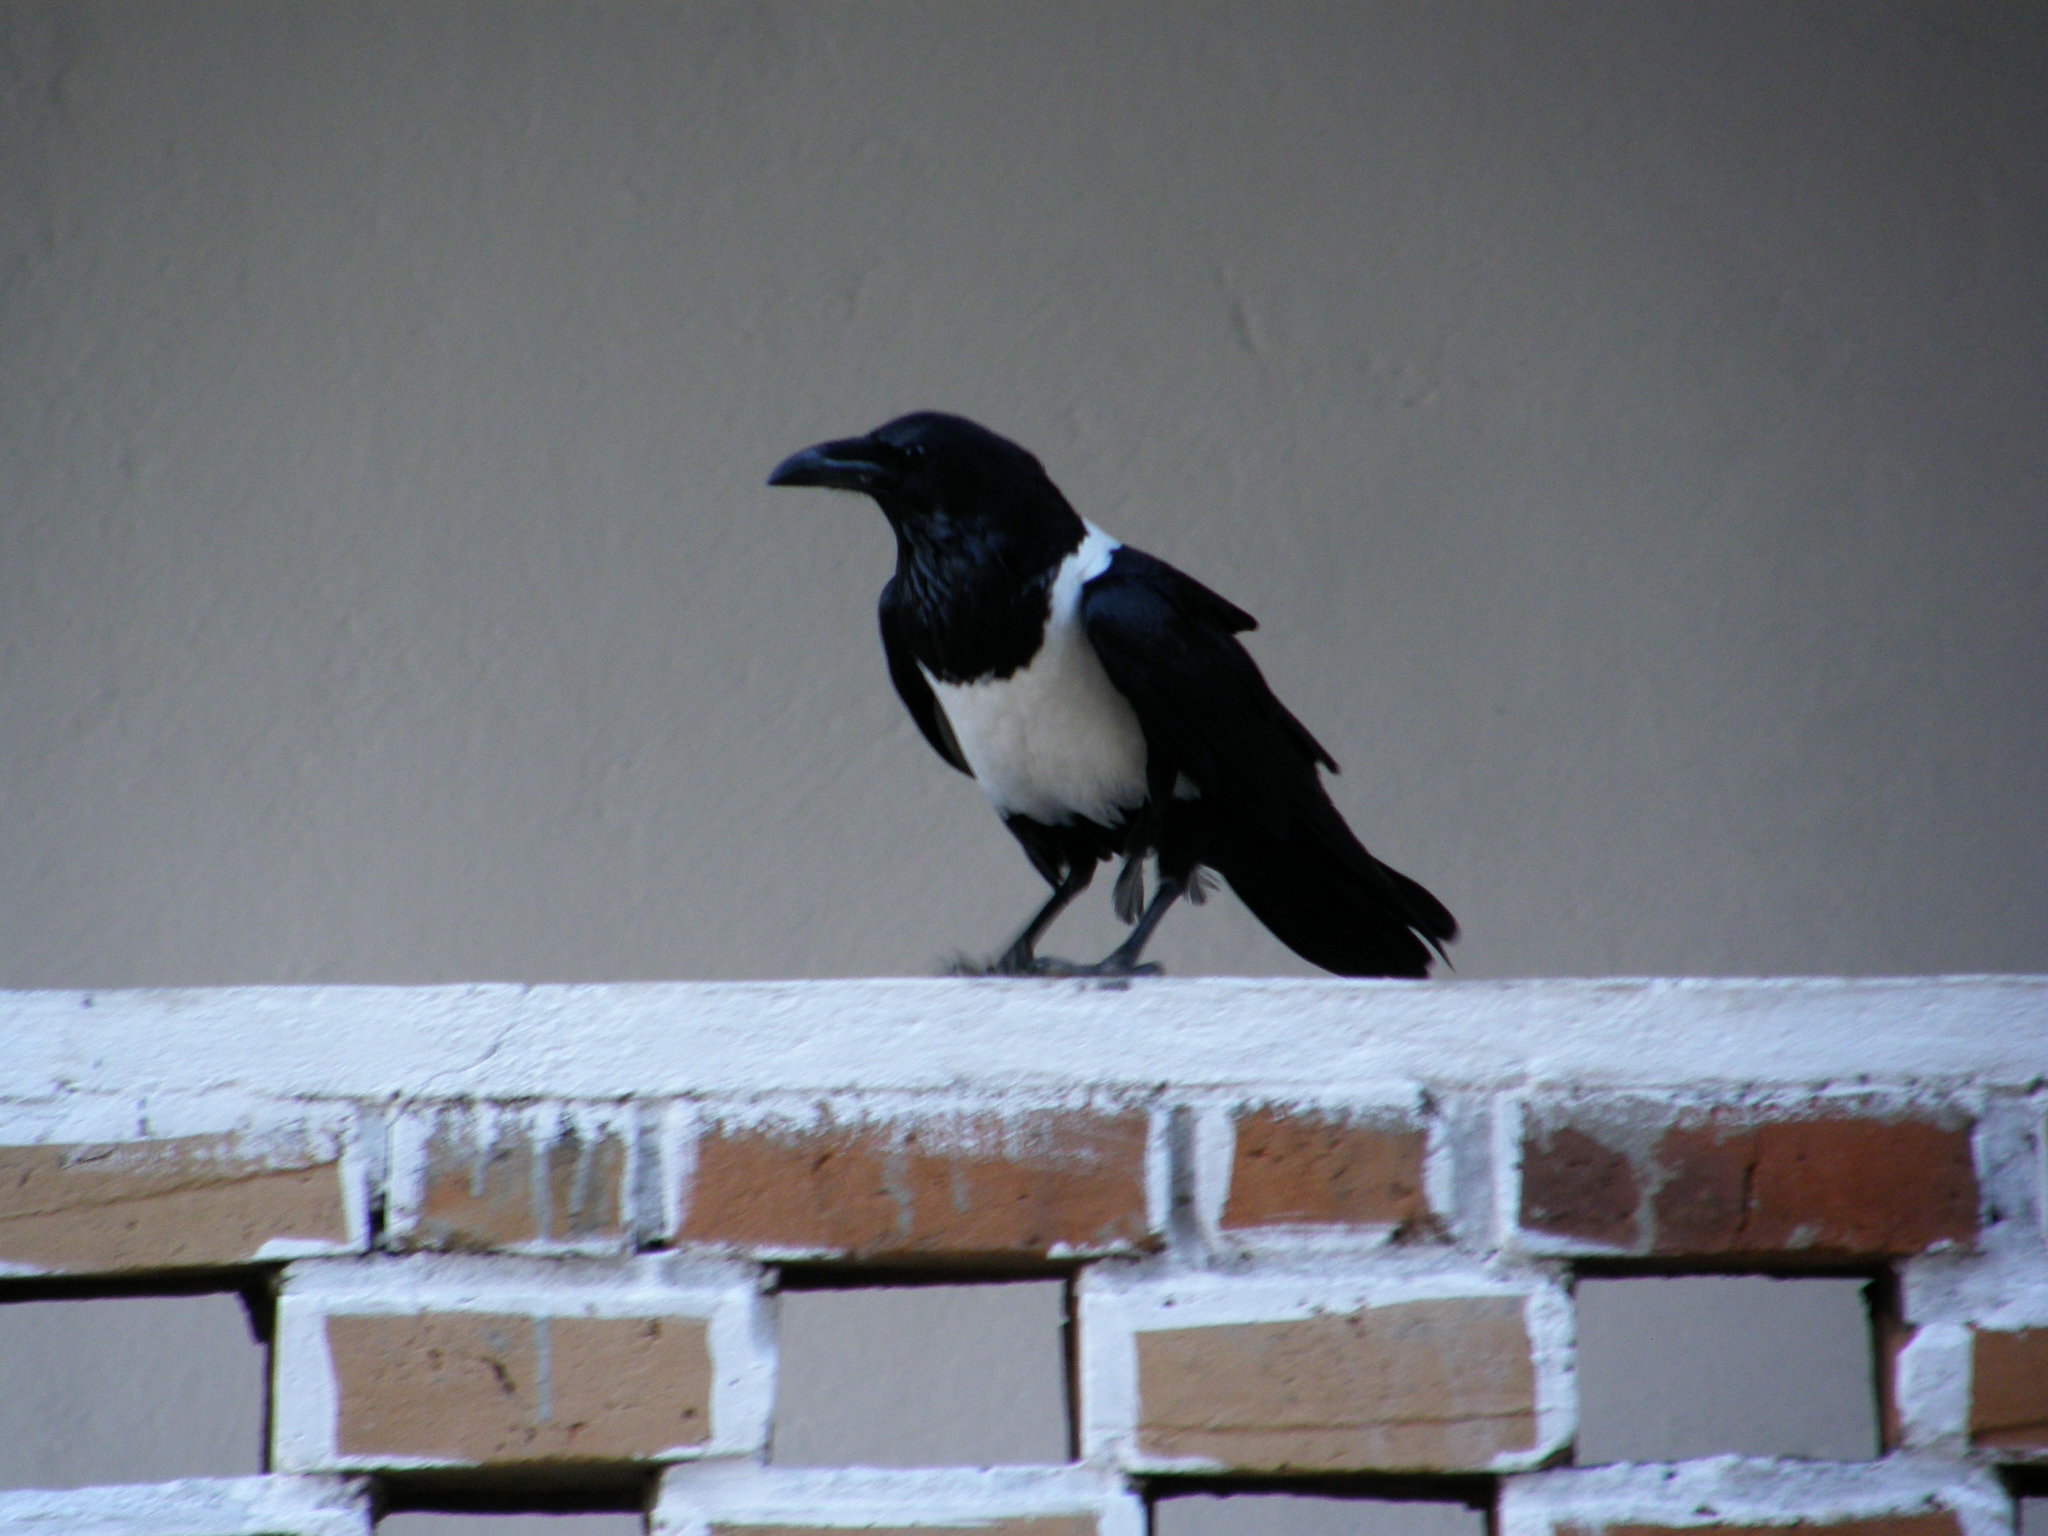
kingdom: Animalia
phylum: Chordata
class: Aves
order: Passeriformes
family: Corvidae
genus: Corvus
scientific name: Corvus albus
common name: Pied crow
